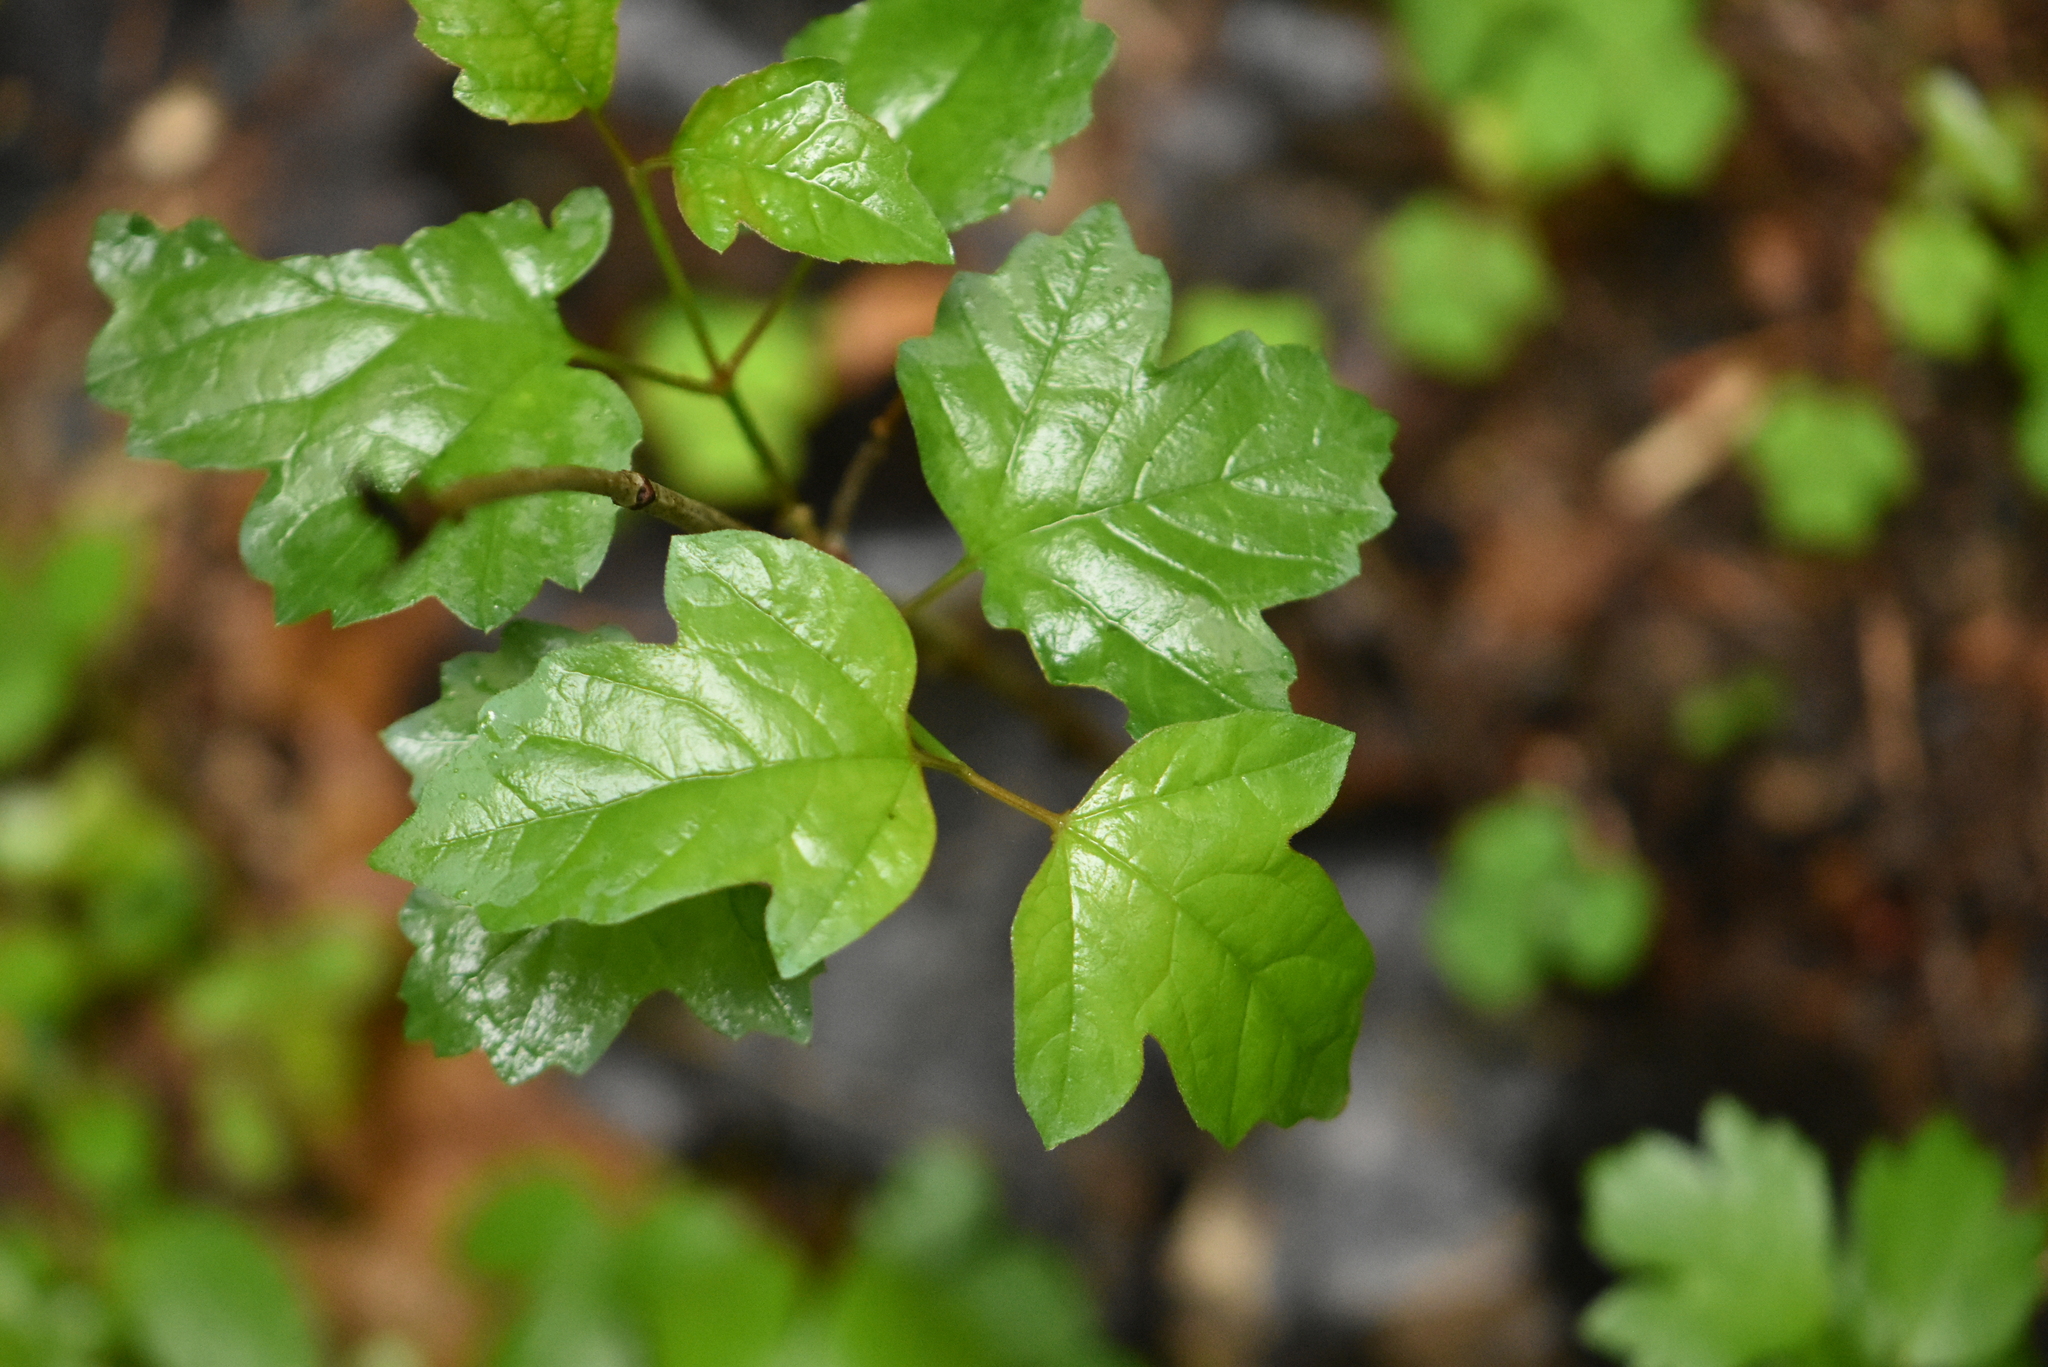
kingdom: Plantae
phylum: Tracheophyta
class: Magnoliopsida
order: Dipsacales
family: Viburnaceae
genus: Viburnum
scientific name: Viburnum opulus
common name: Guelder-rose
